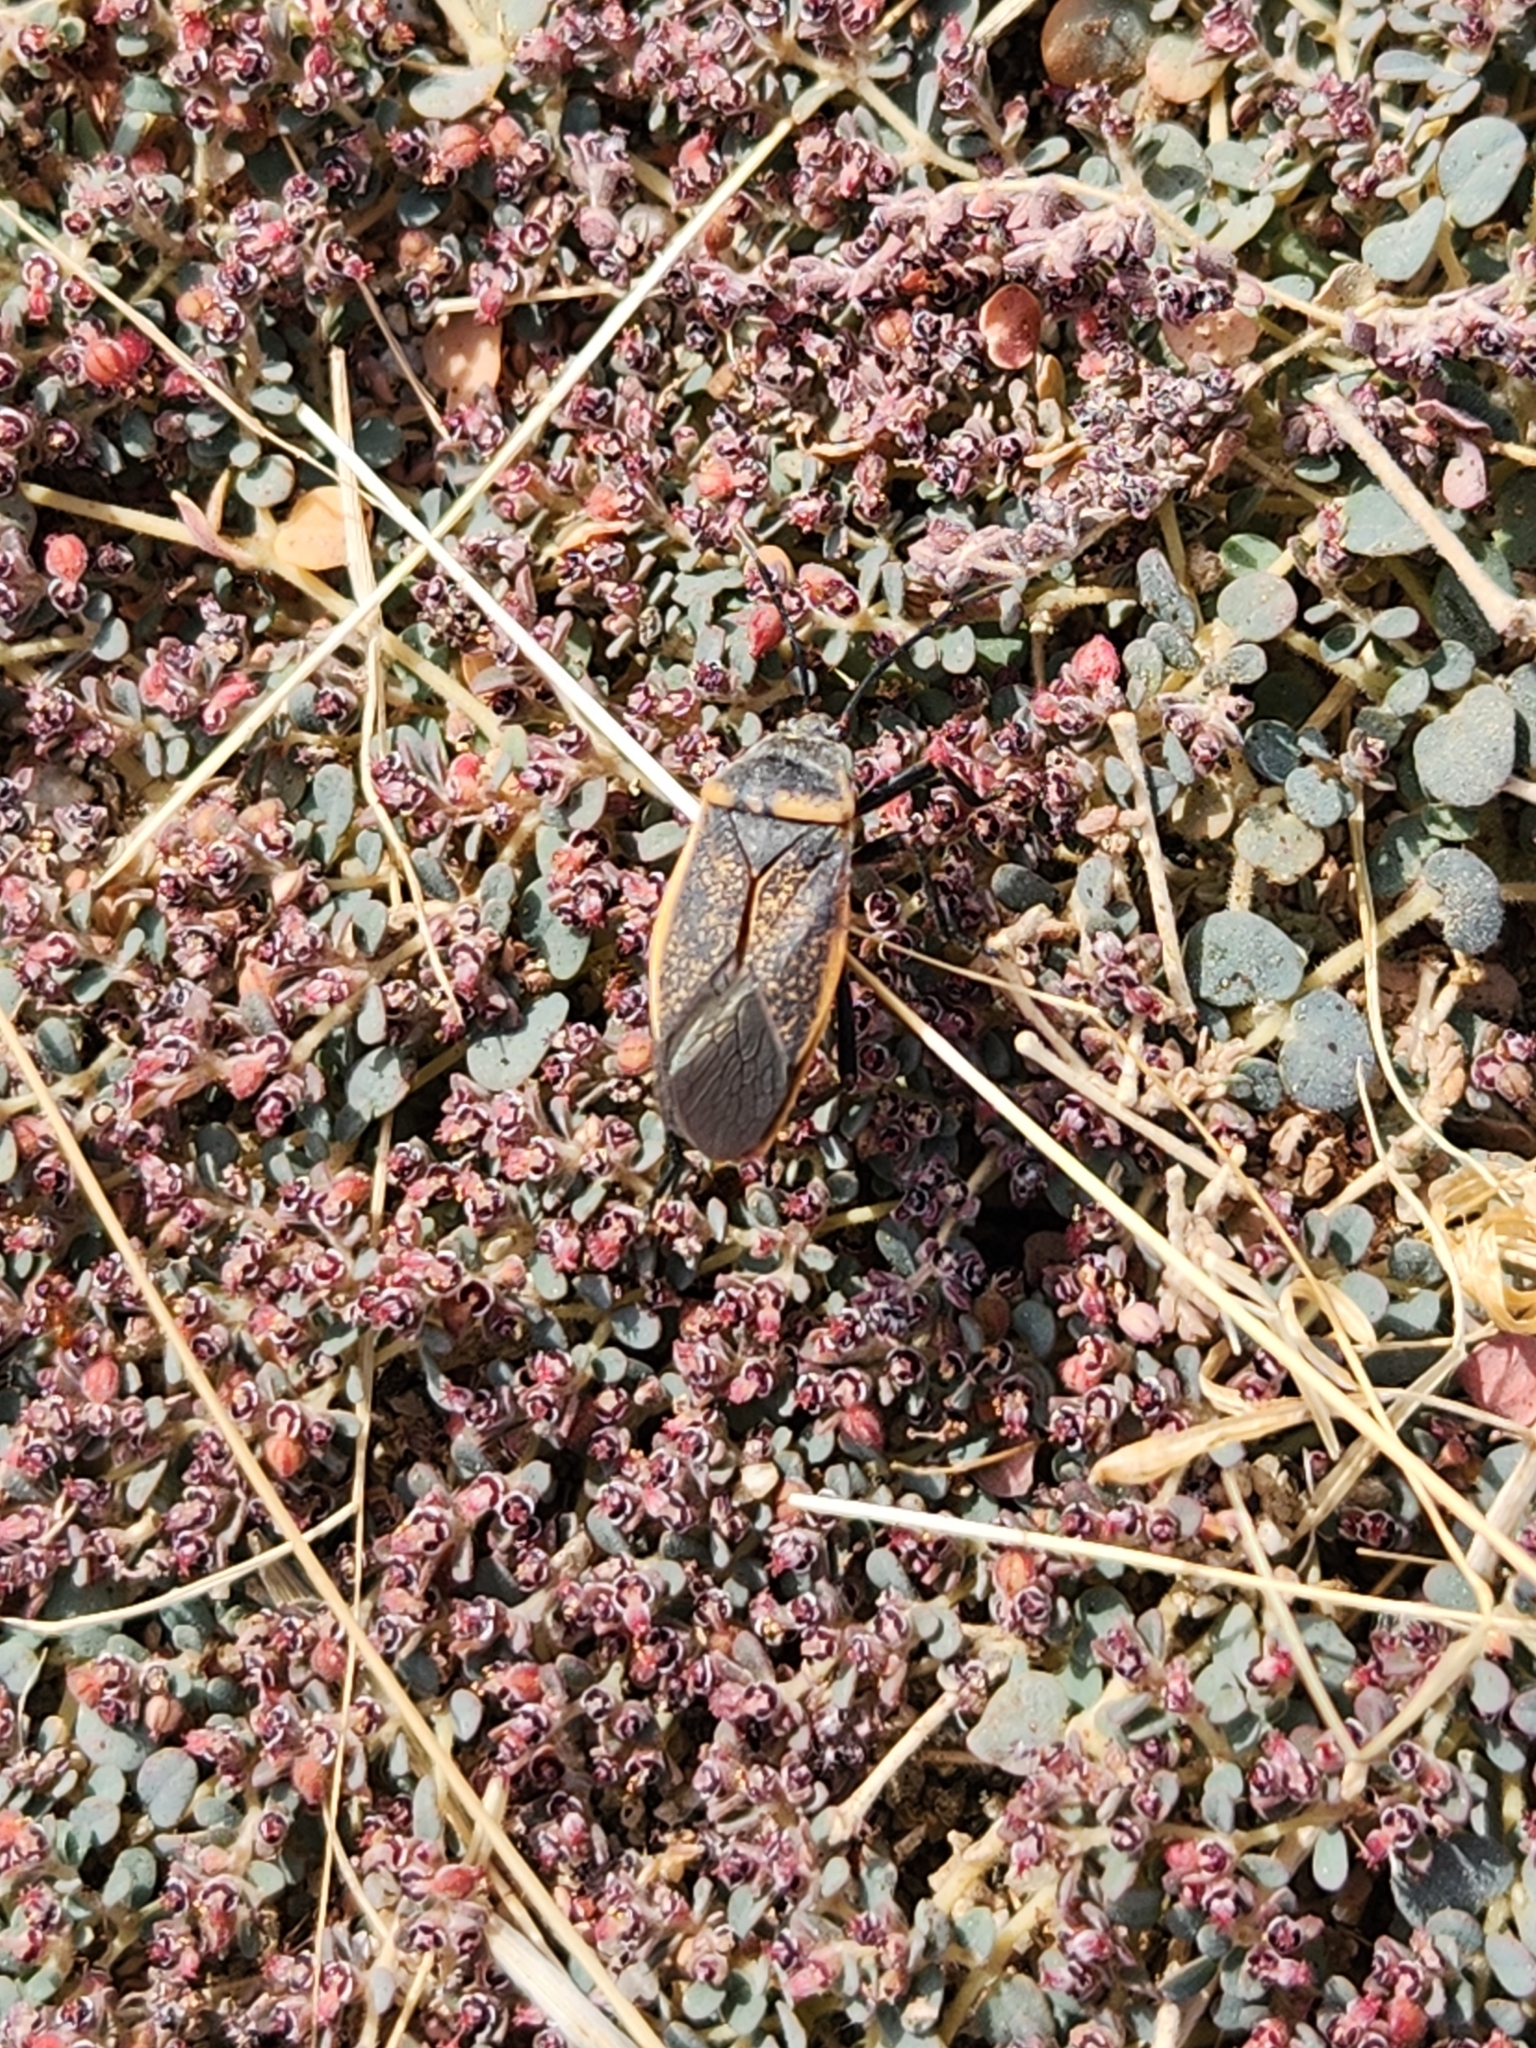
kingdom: Animalia
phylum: Arthropoda
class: Insecta
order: Hemiptera
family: Largidae
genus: Largus
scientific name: Largus californicus
